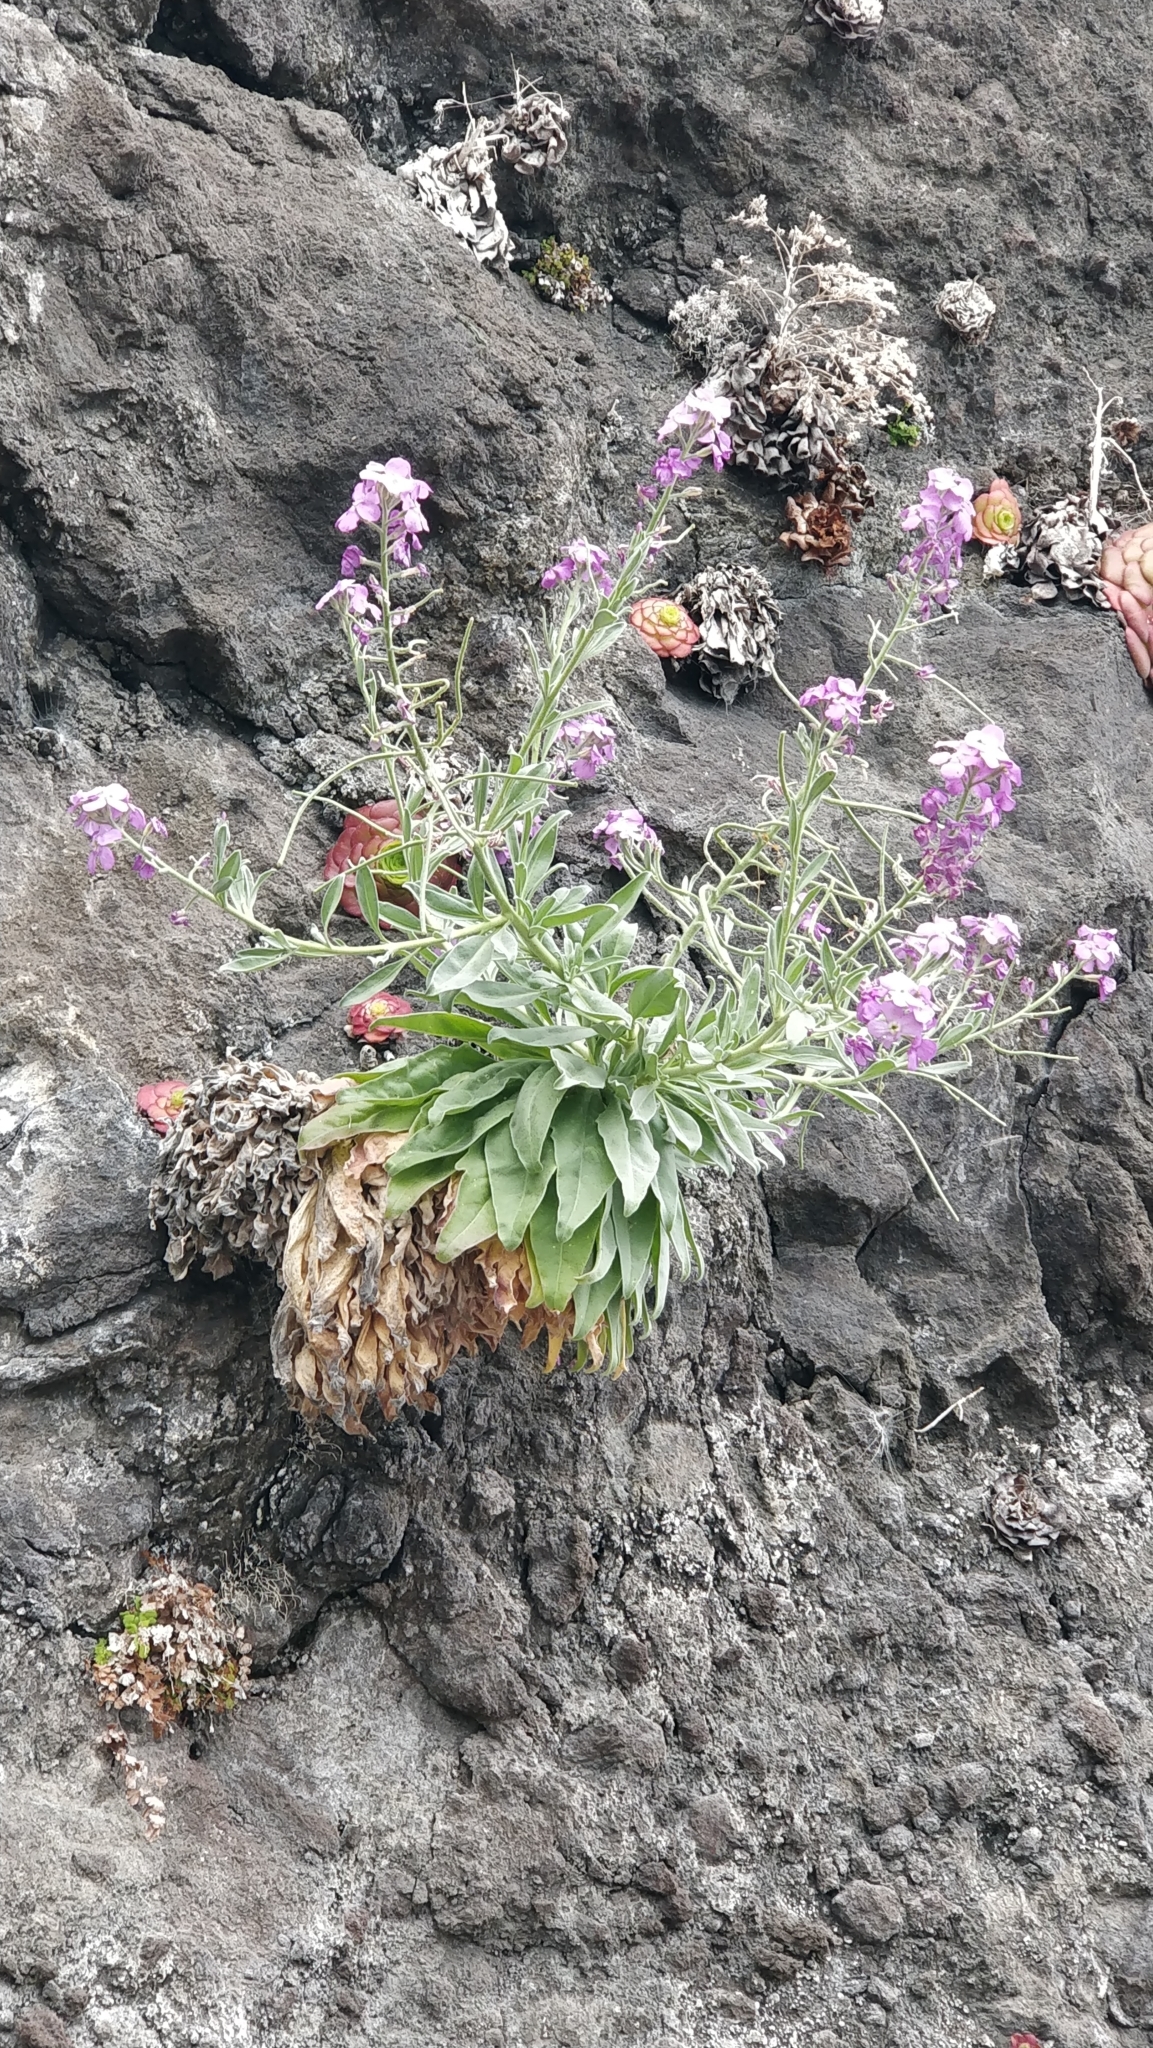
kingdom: Plantae
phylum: Tracheophyta
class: Magnoliopsida
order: Brassicales
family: Brassicaceae
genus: Matthiola
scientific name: Matthiola maderensis
